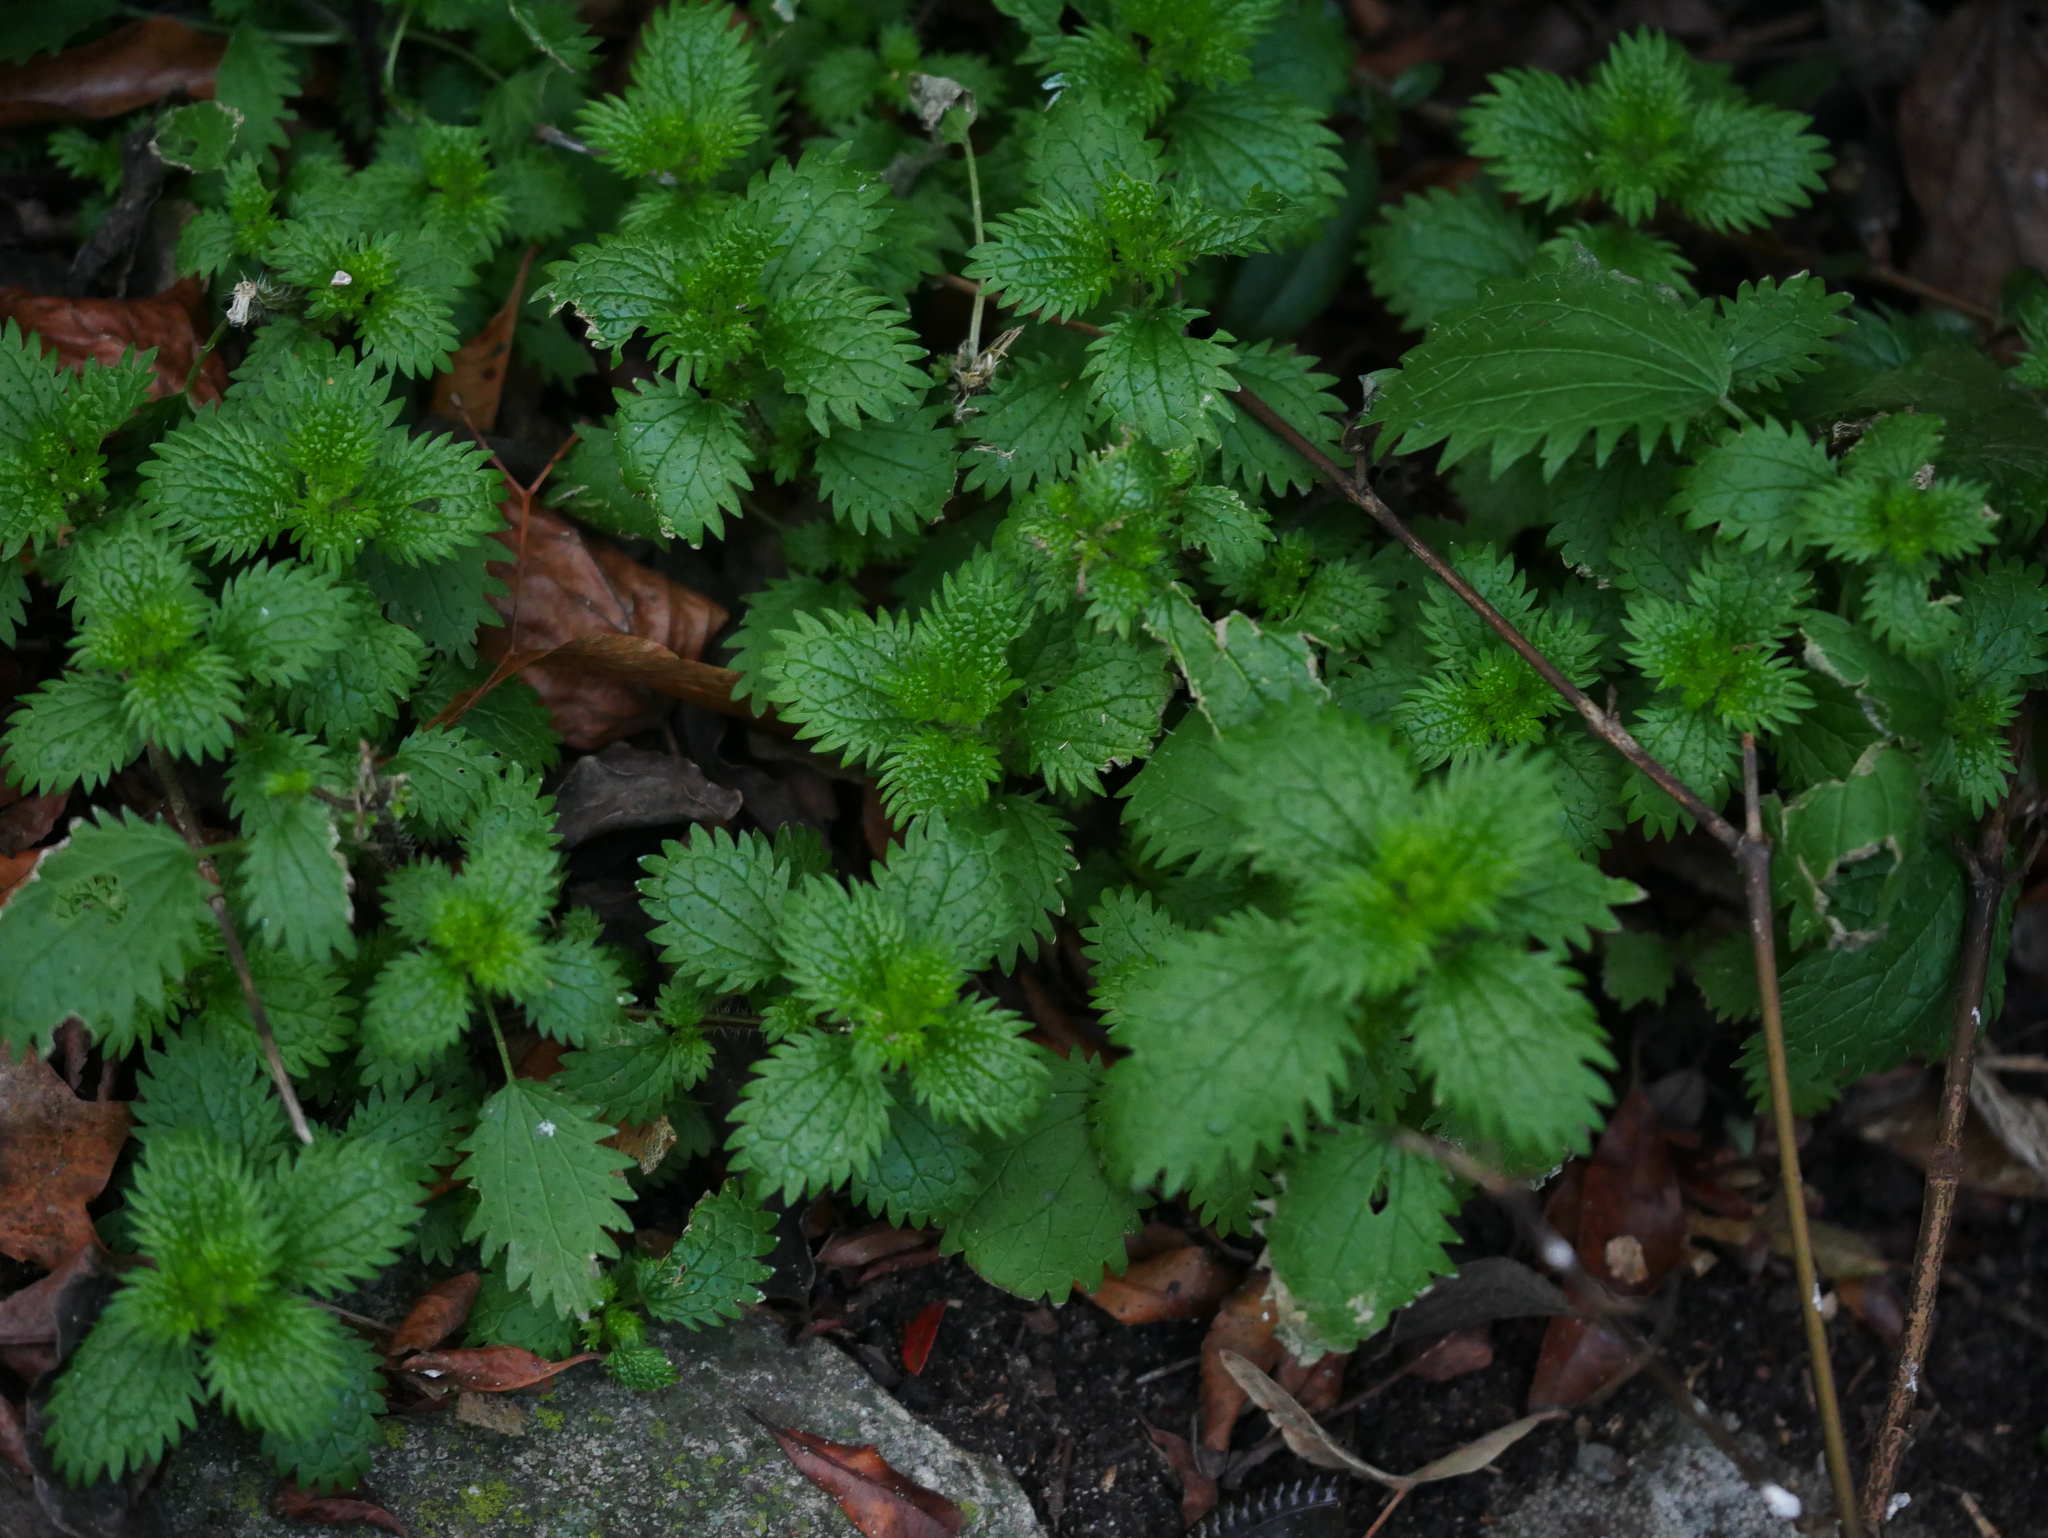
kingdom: Plantae
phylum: Tracheophyta
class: Magnoliopsida
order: Rosales
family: Urticaceae
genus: Urtica
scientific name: Urtica urens
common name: Dwarf nettle
